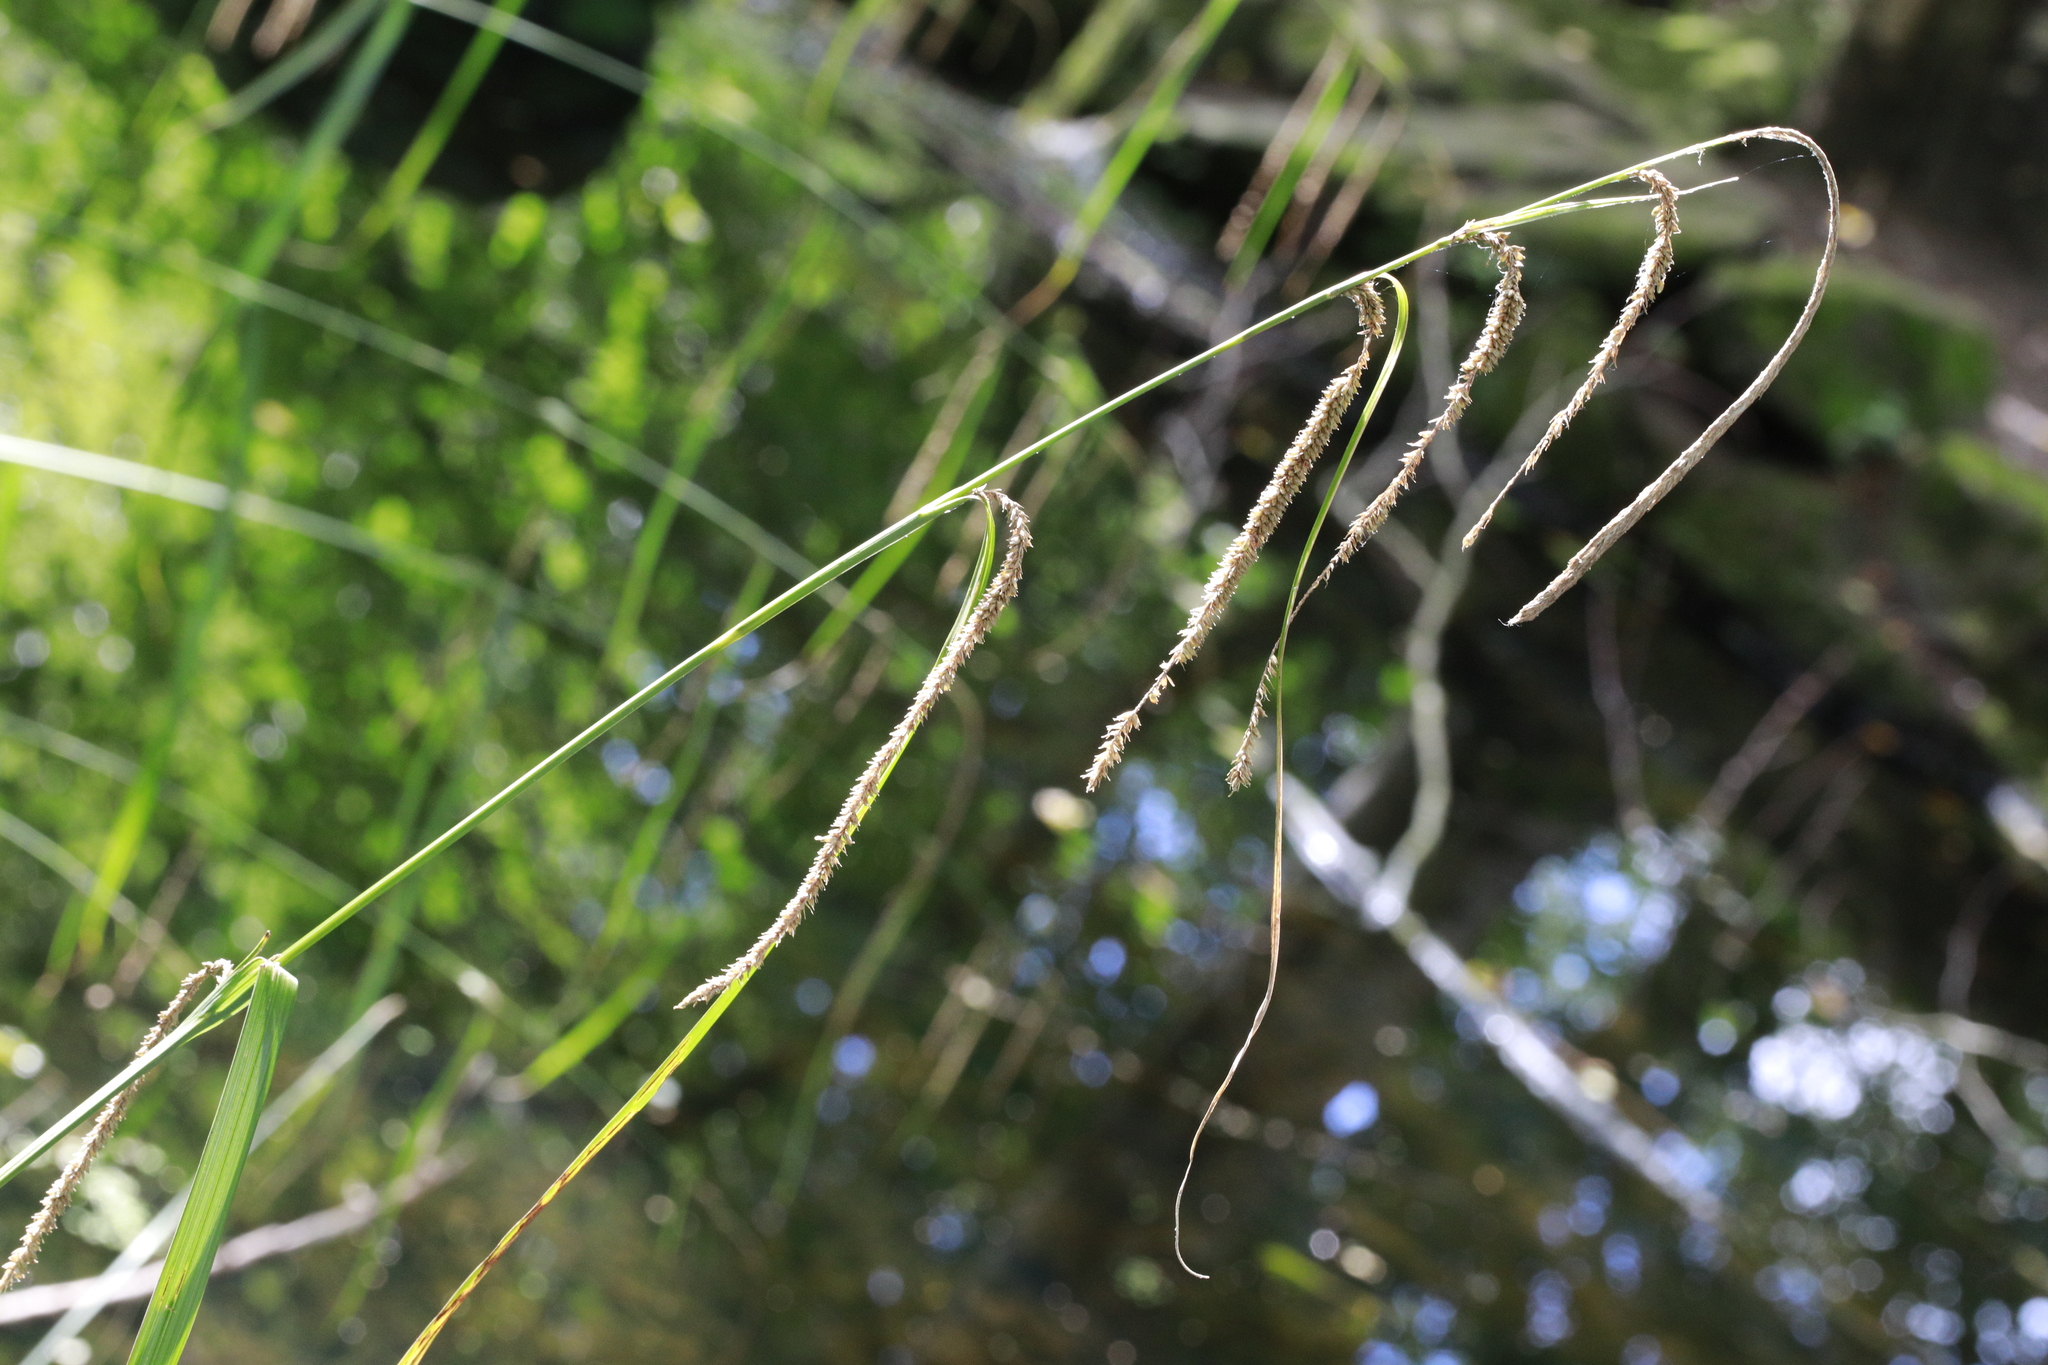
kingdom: Plantae
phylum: Tracheophyta
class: Liliopsida
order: Poales
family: Cyperaceae
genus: Carex
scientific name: Carex pendula
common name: Pendulous sedge
